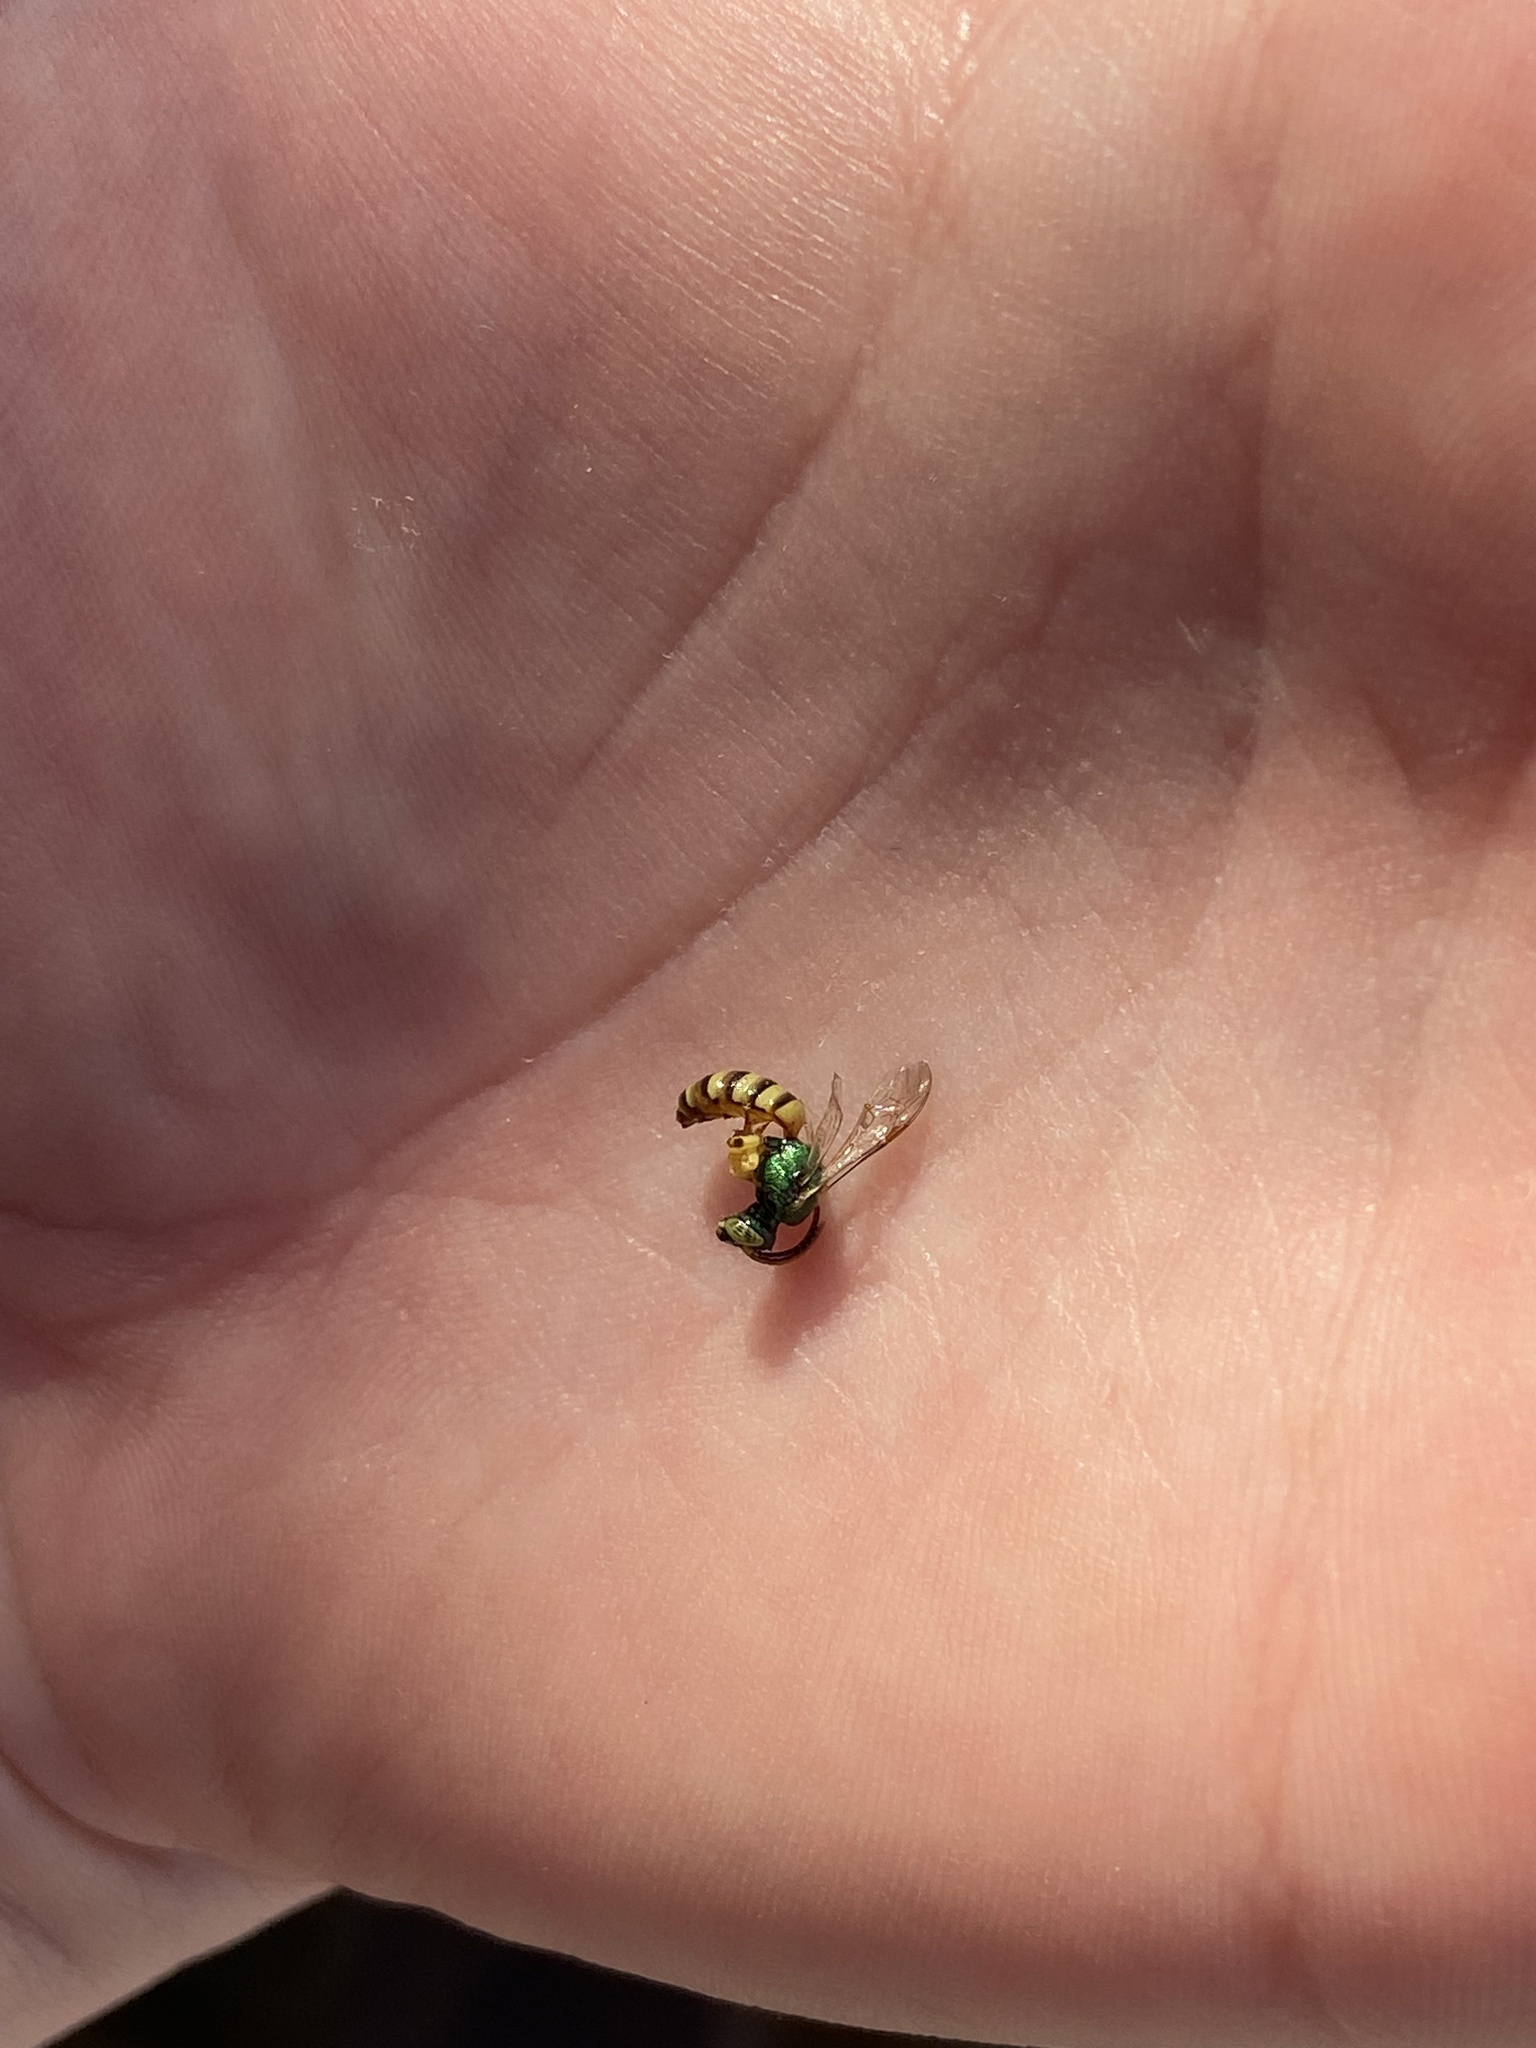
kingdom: Animalia
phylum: Arthropoda
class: Insecta
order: Hymenoptera
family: Halictidae
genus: Agapostemon
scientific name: Agapostemon melliventris
